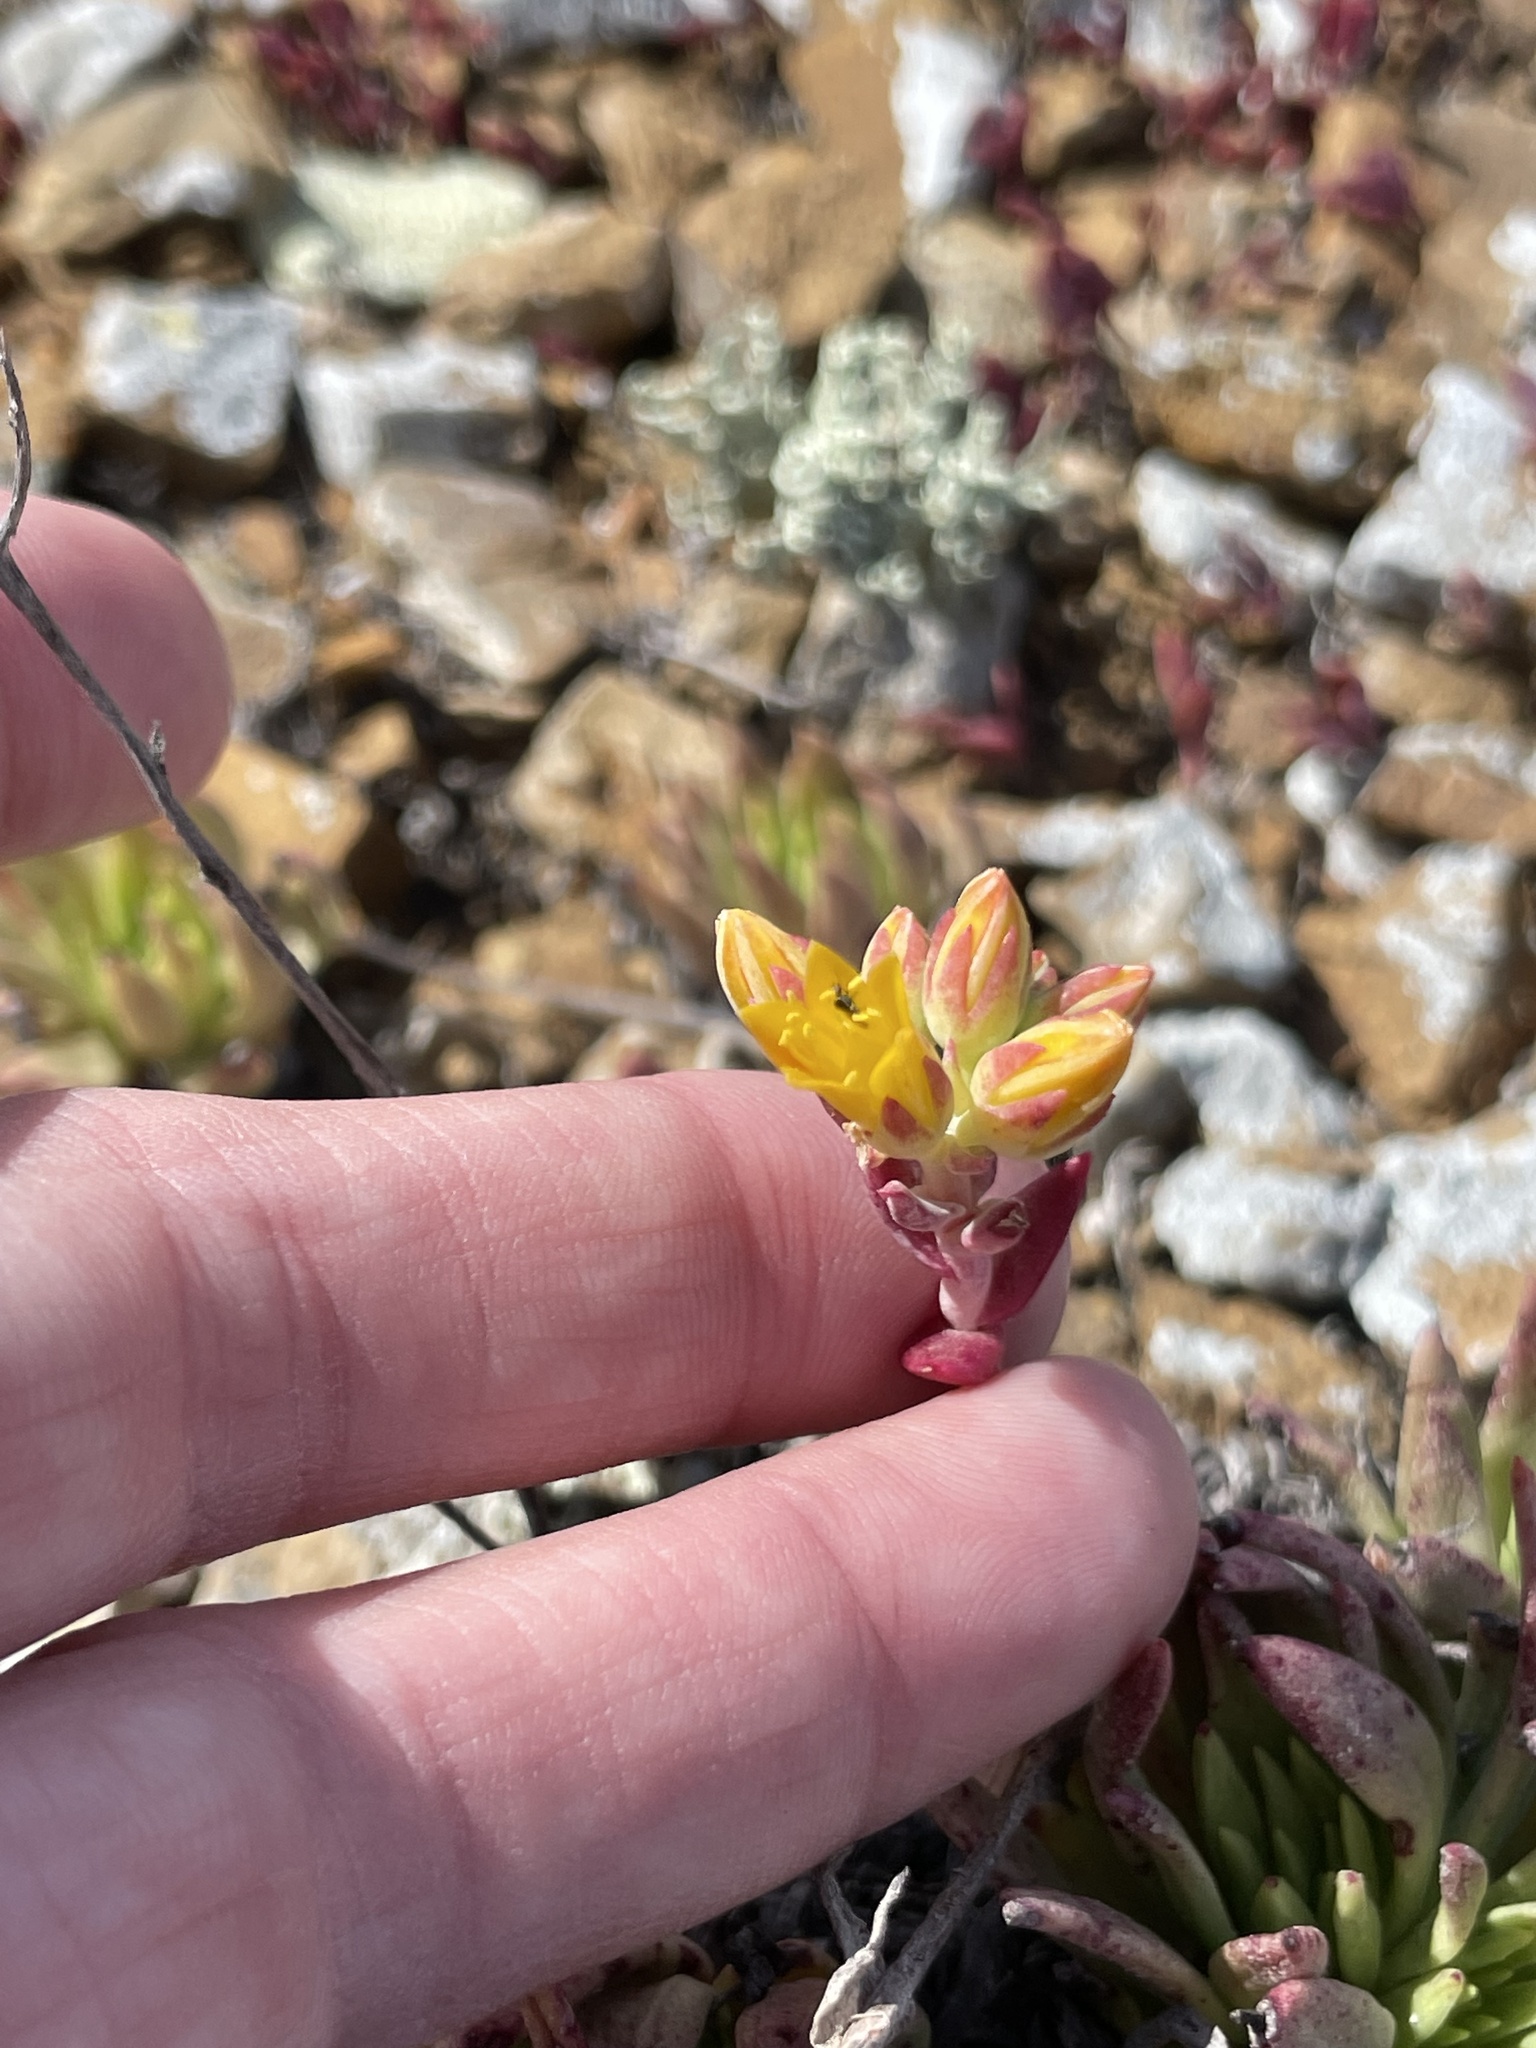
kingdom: Plantae
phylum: Tracheophyta
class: Magnoliopsida
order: Saxifragales
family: Crassulaceae
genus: Dudleya
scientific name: Dudleya linearis
